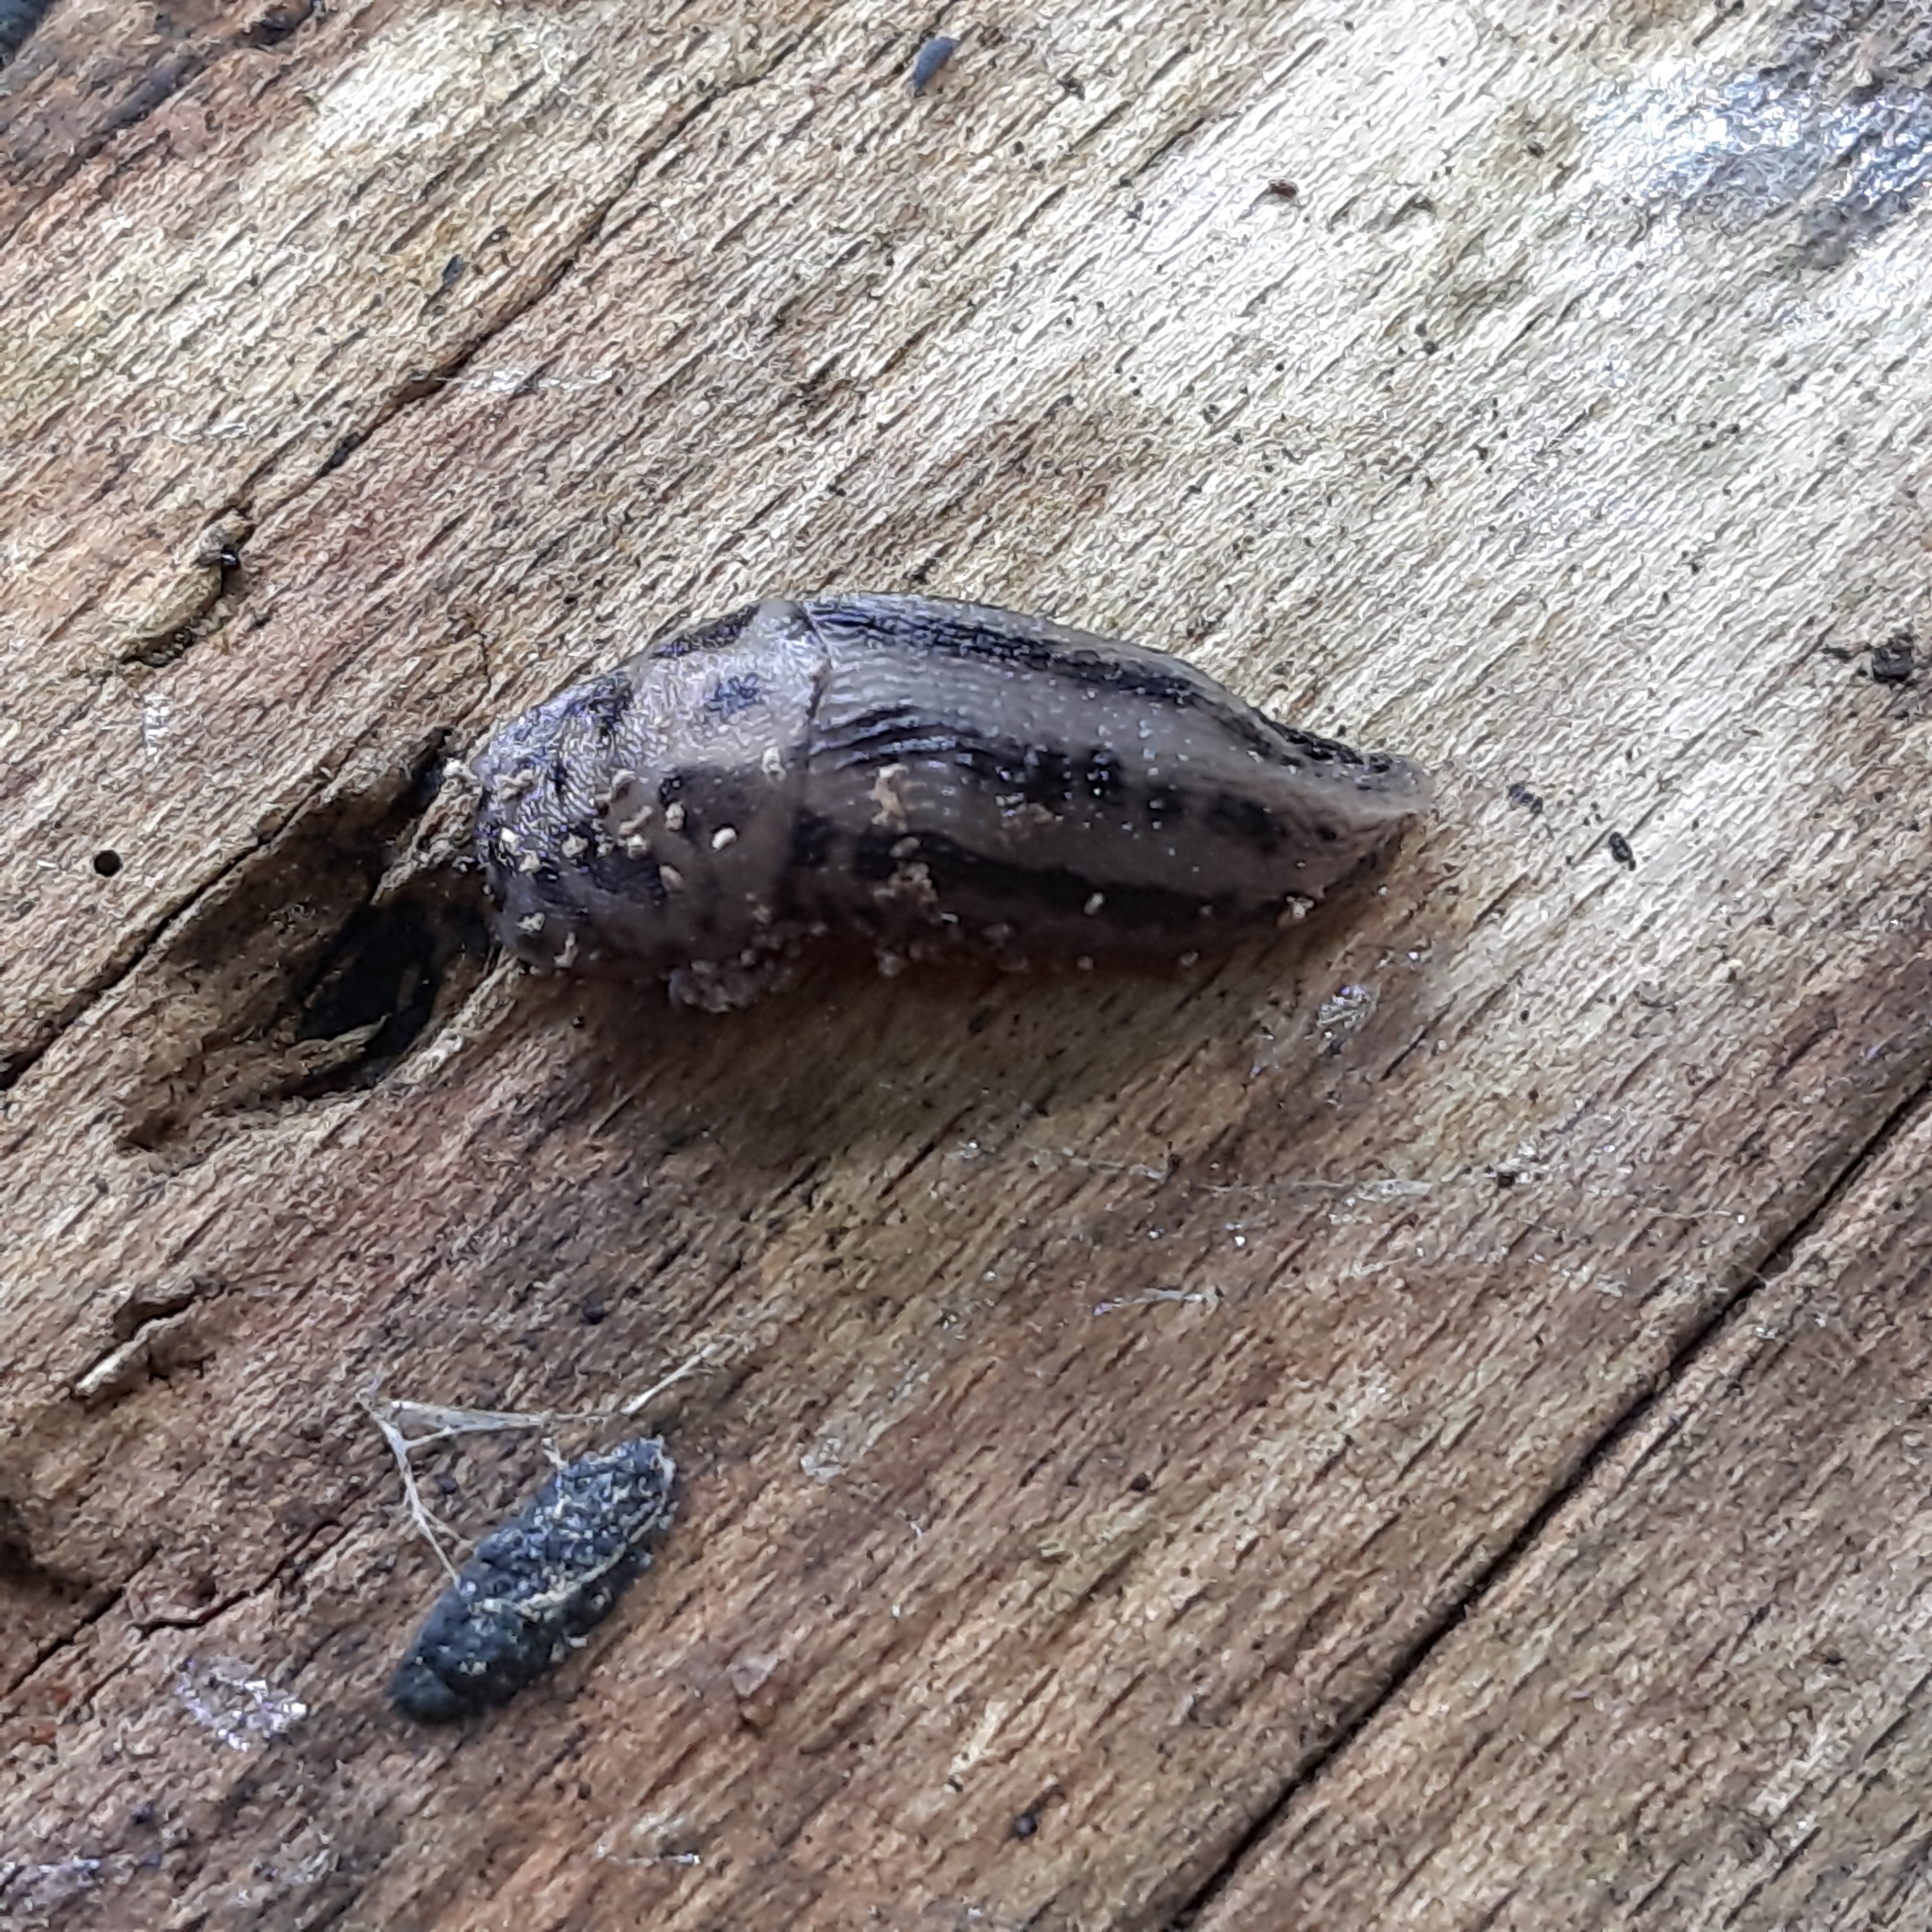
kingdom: Animalia
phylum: Mollusca
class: Gastropoda
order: Stylommatophora
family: Limacidae
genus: Limax
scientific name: Limax maximus
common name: Great grey slug
